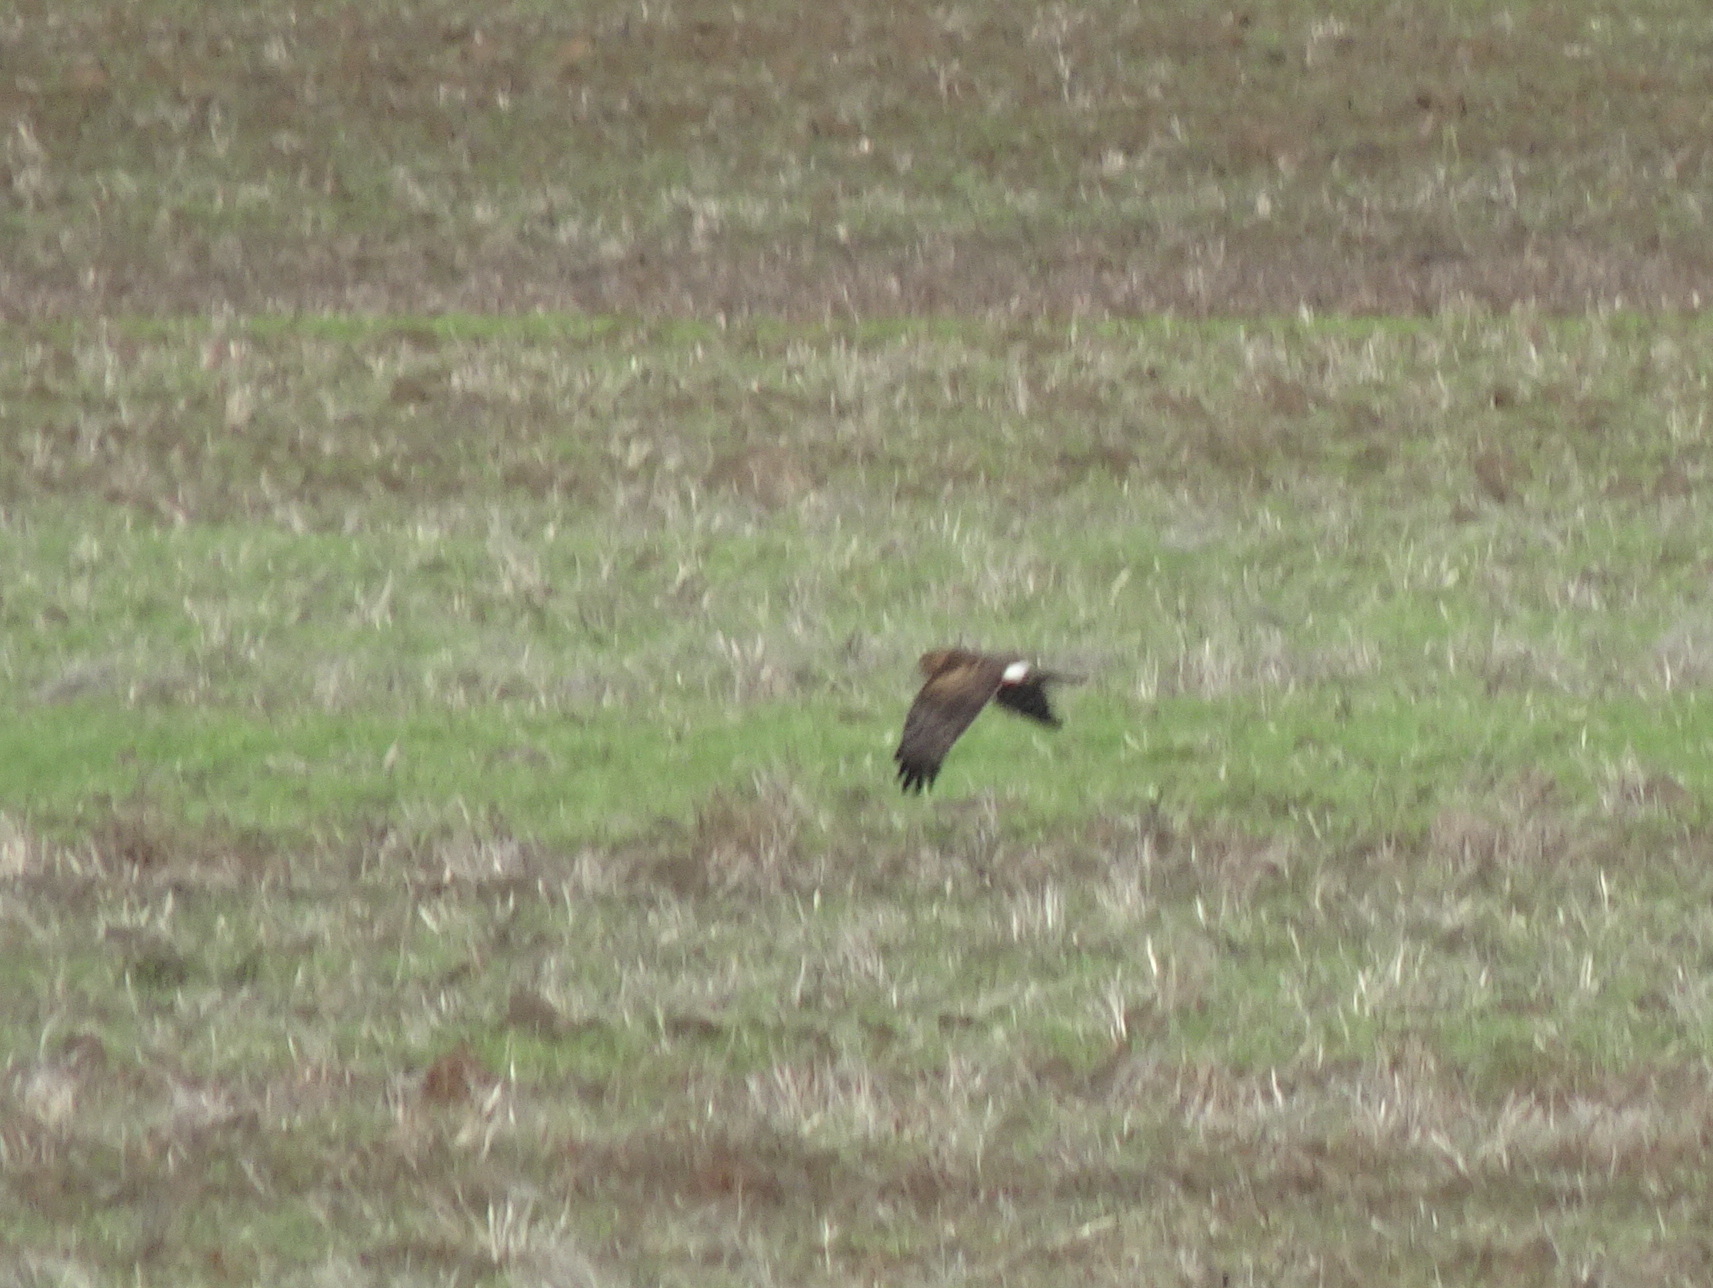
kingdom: Animalia
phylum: Chordata
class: Aves
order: Accipitriformes
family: Accipitridae
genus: Circus
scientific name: Circus cyaneus
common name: Hen harrier
